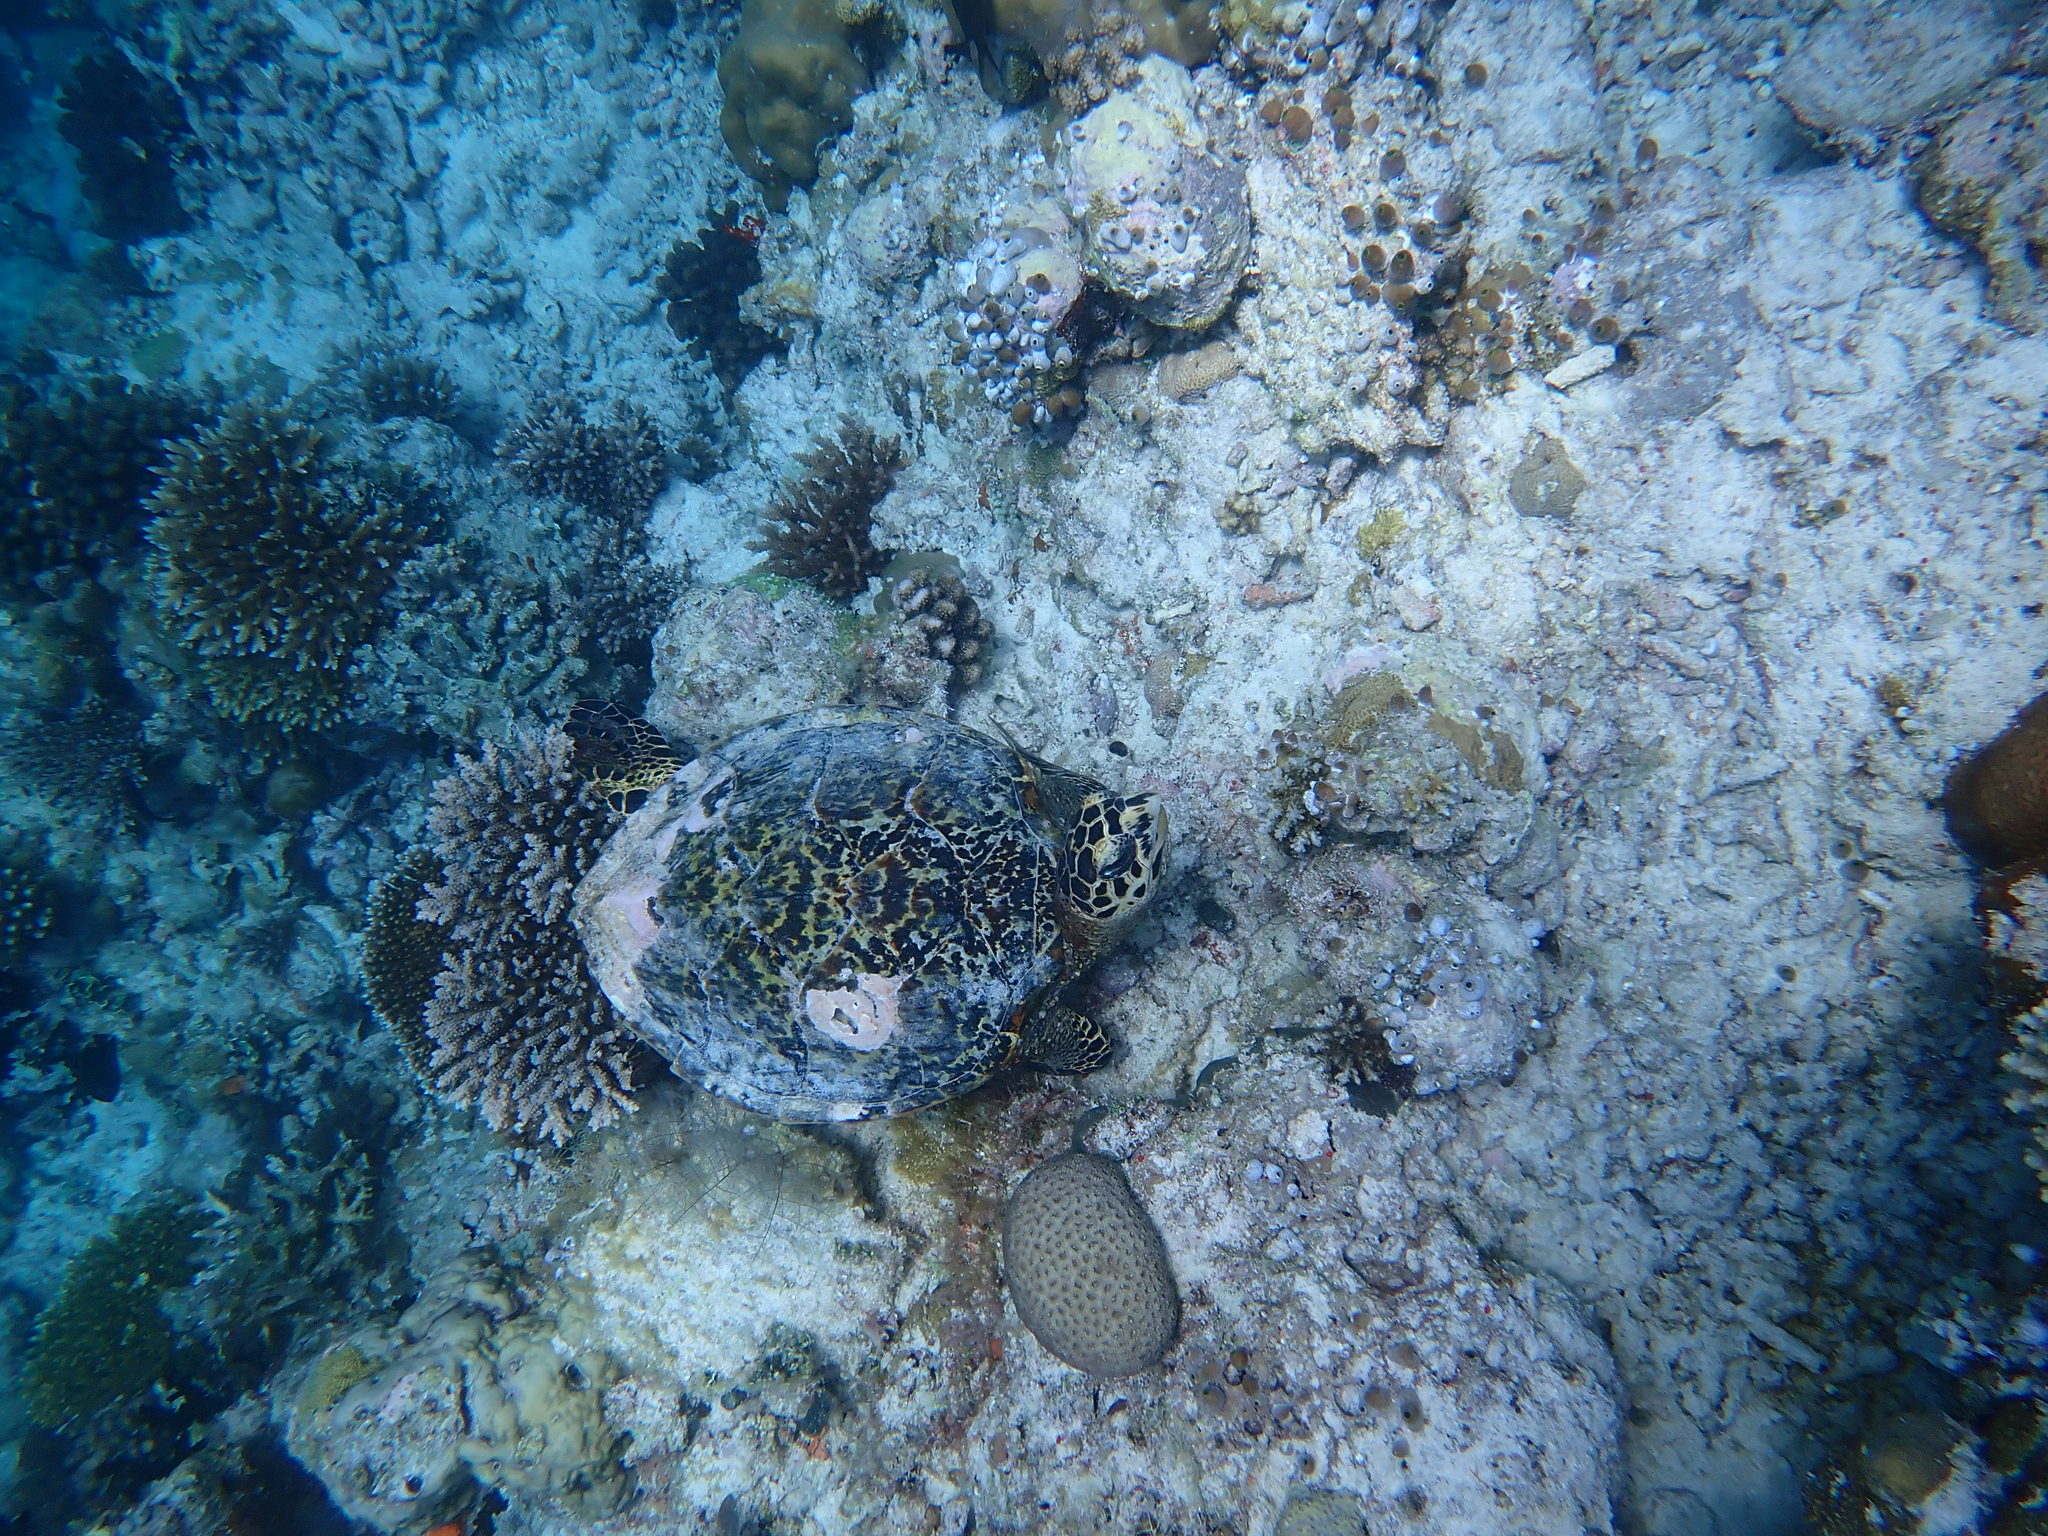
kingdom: Animalia
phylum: Chordata
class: Testudines
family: Cheloniidae
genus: Eretmochelys
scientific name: Eretmochelys imbricata
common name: Hawksbill turtle
